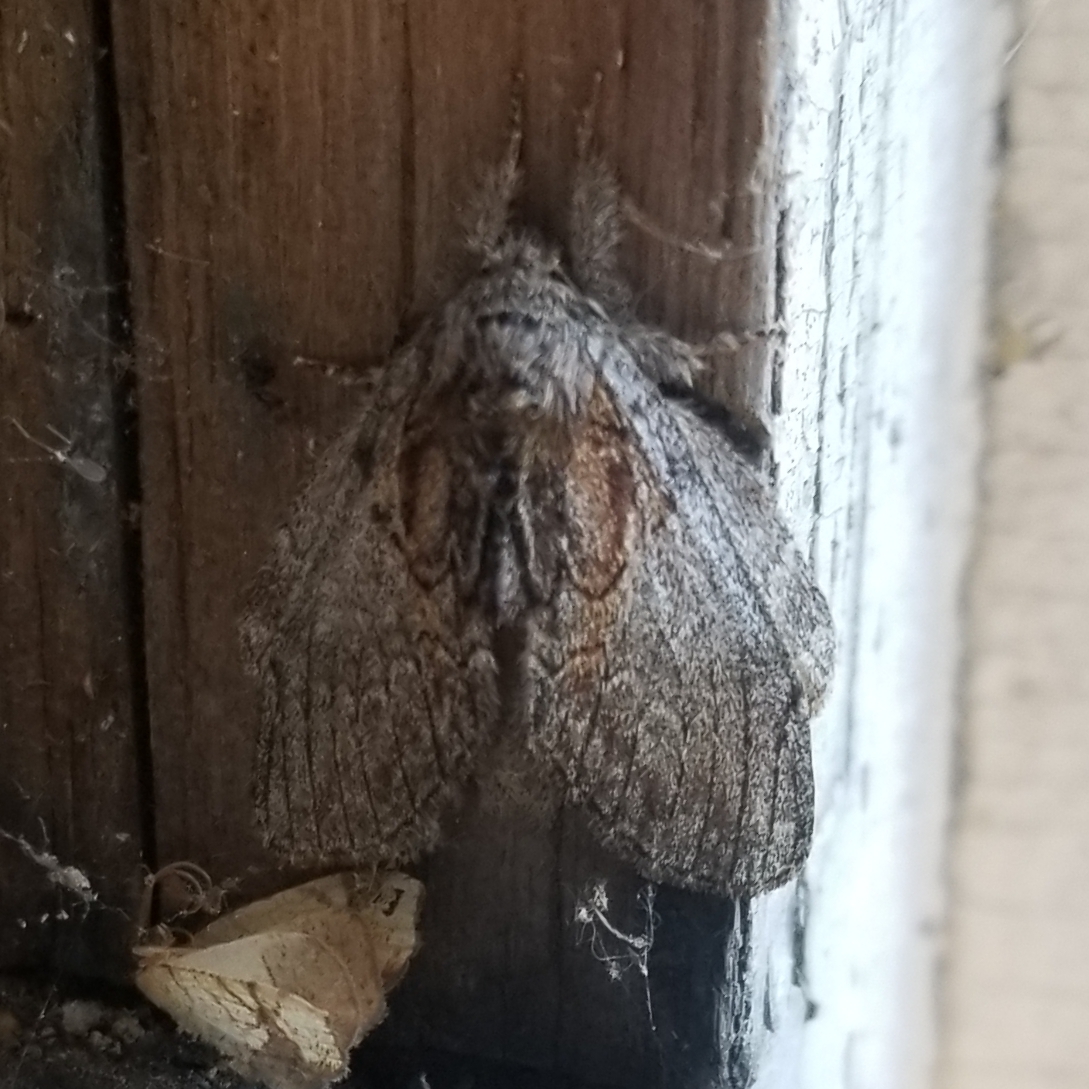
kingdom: Animalia
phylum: Arthropoda
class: Insecta
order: Lepidoptera
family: Notodontidae
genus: Peridea
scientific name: Peridea basitriens
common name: Oval-based prominent
